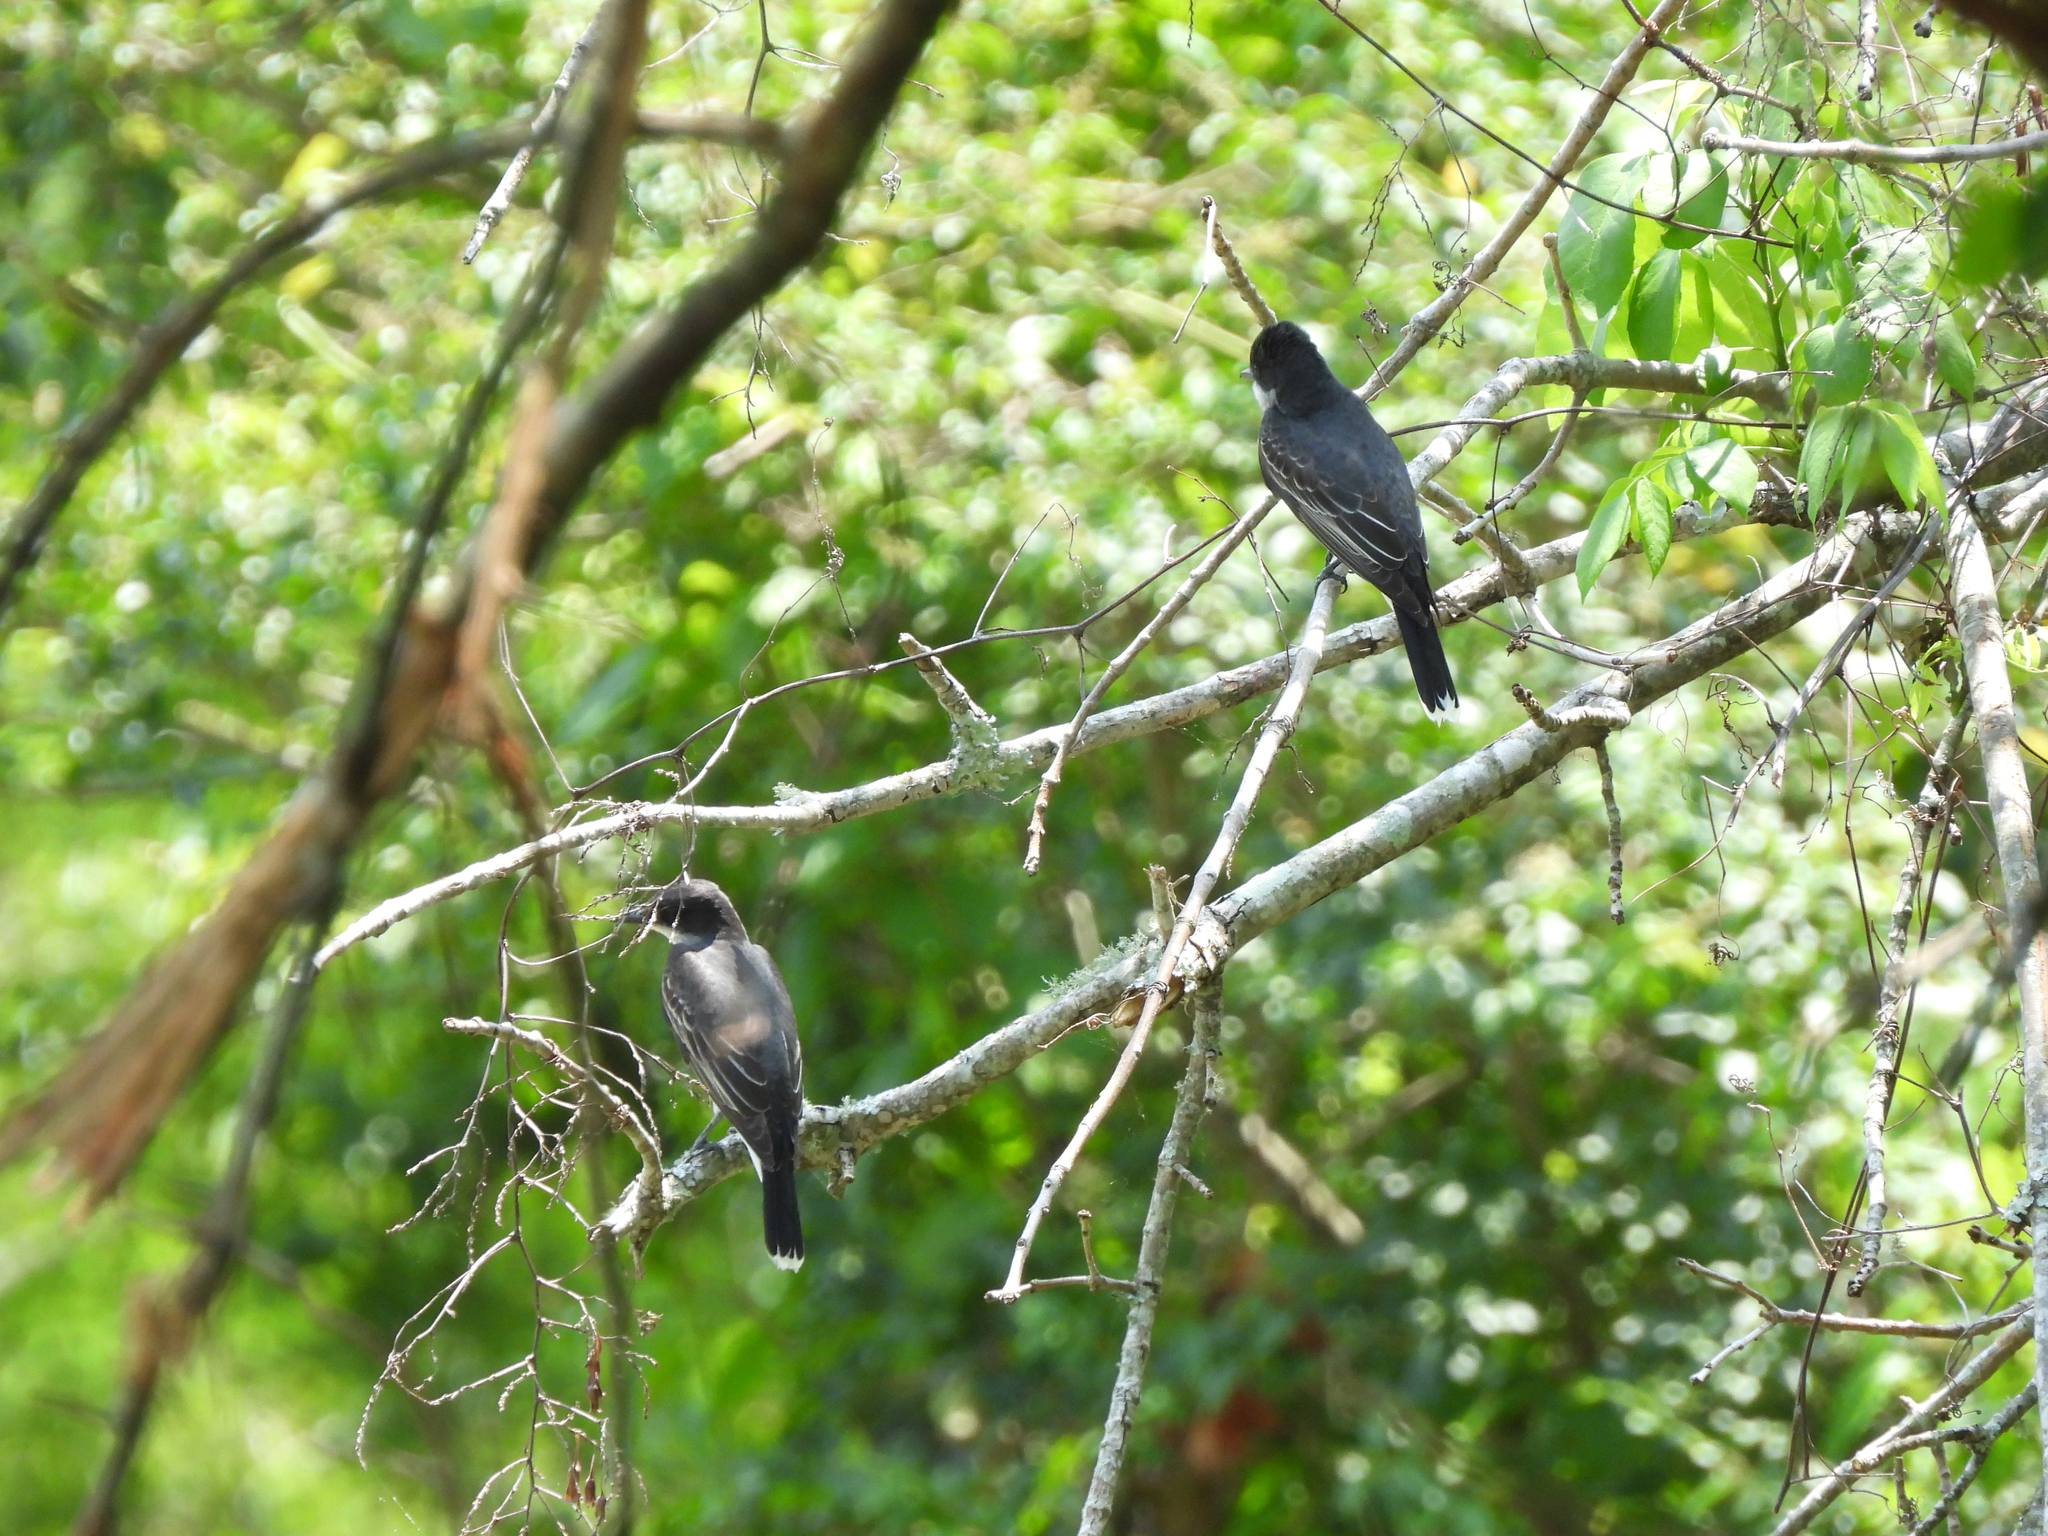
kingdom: Animalia
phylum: Chordata
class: Aves
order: Passeriformes
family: Tyrannidae
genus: Tyrannus
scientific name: Tyrannus tyrannus
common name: Eastern kingbird
